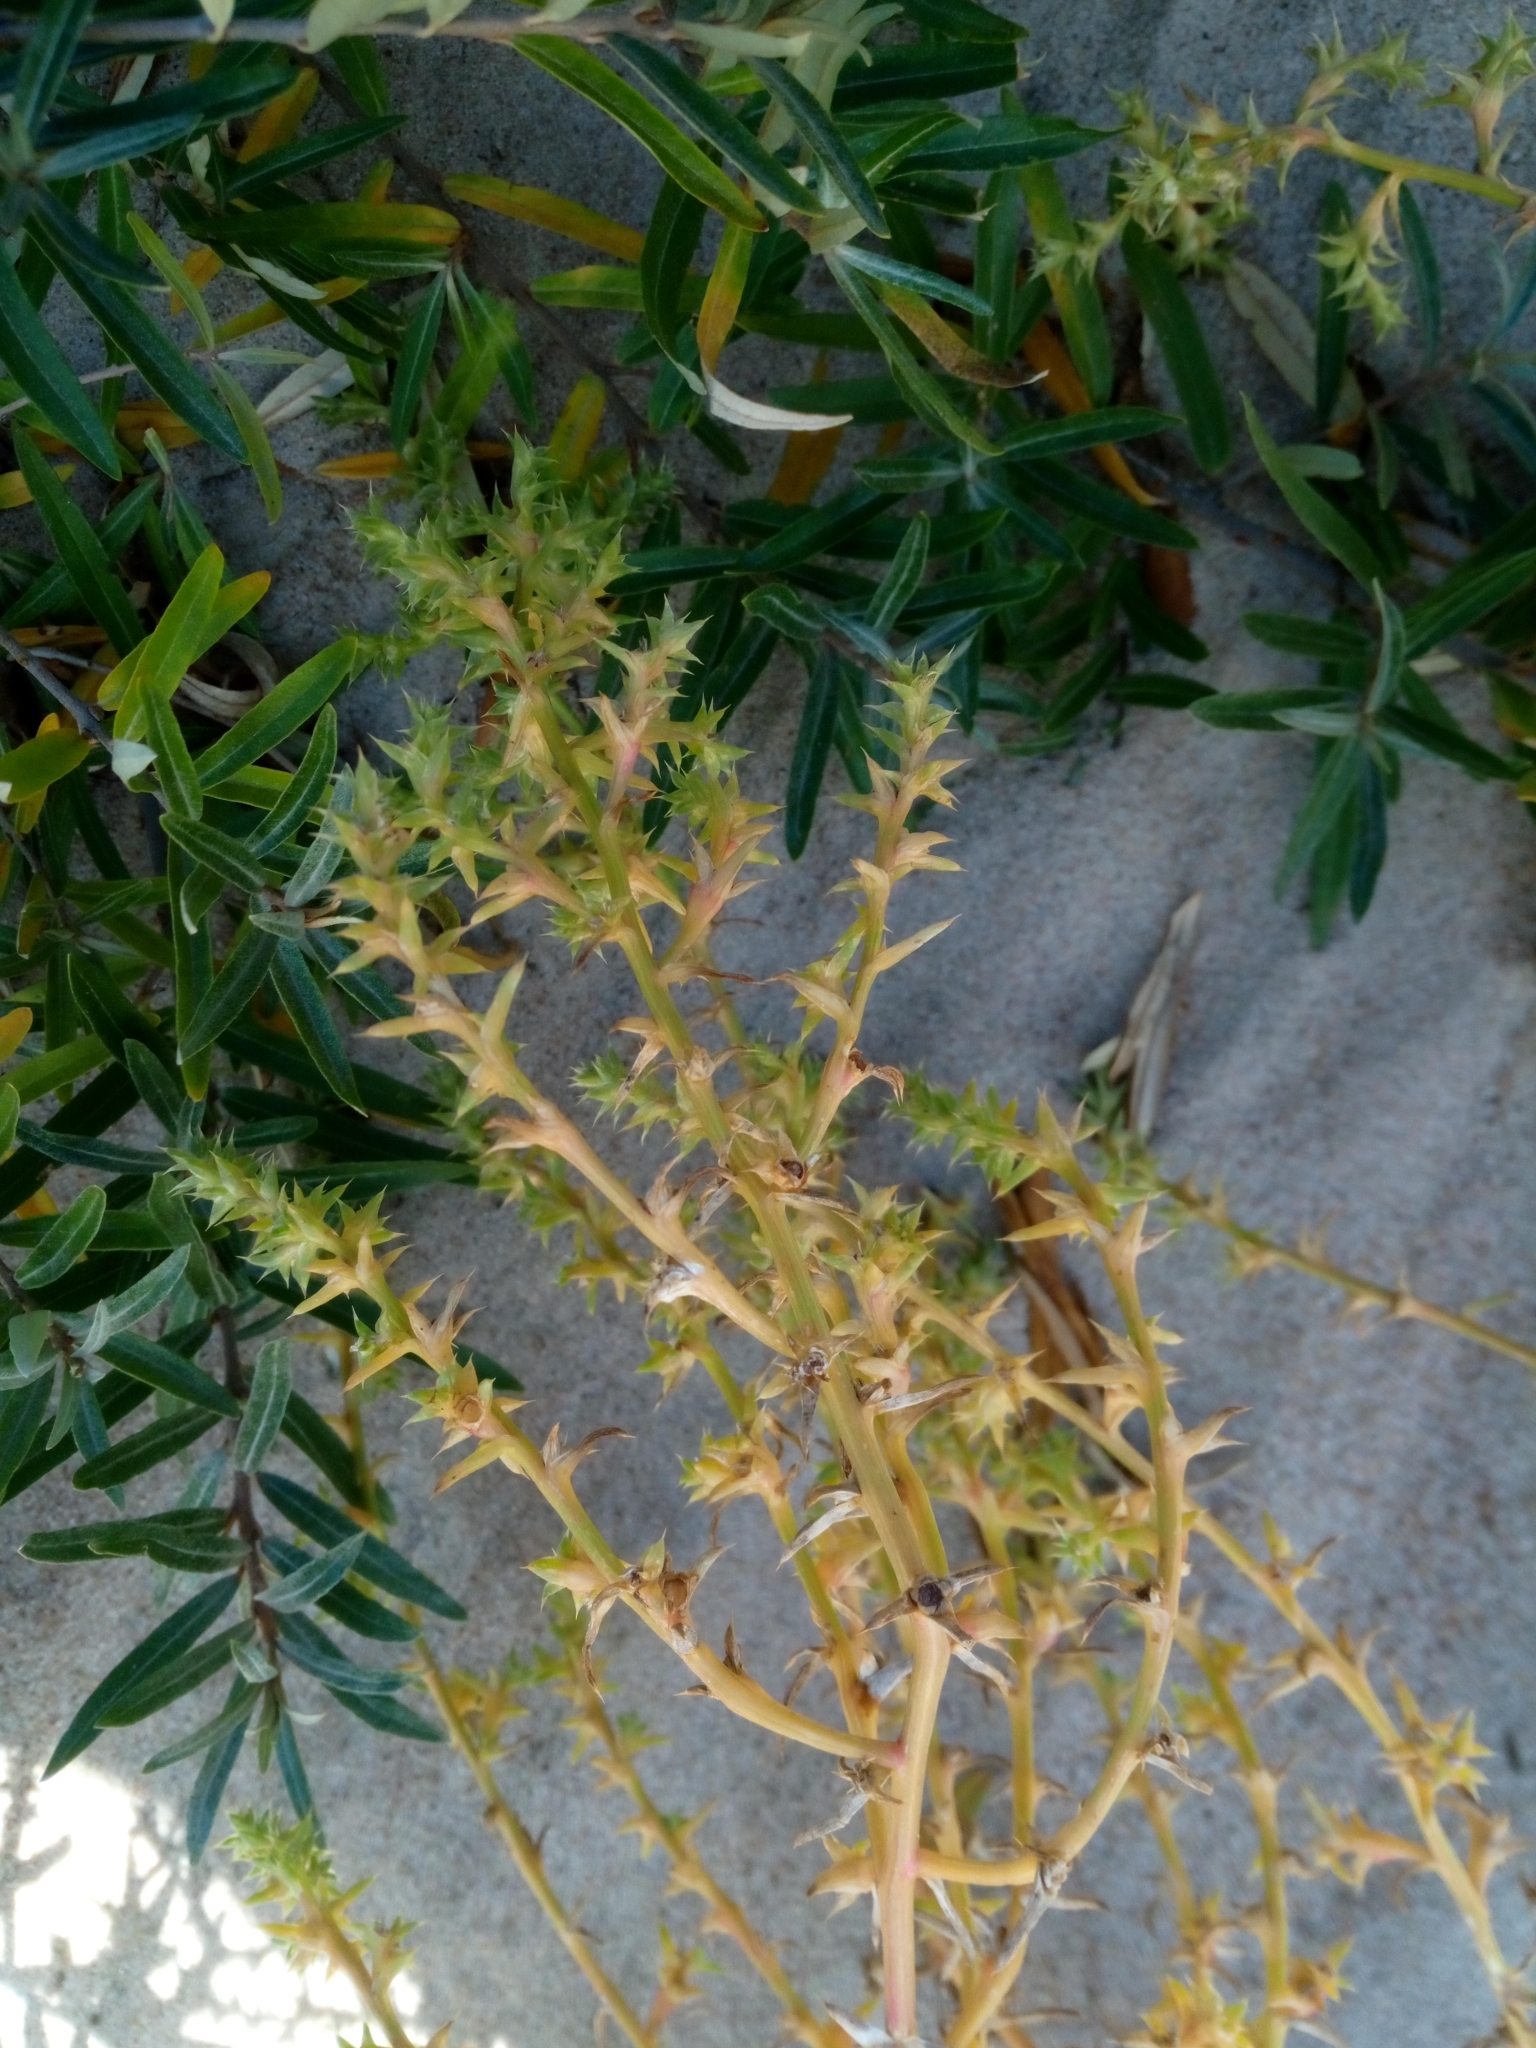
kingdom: Plantae
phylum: Tracheophyta
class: Magnoliopsida
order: Caryophyllales
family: Amaranthaceae
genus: Salsola
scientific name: Salsola kali
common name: Saltwort
